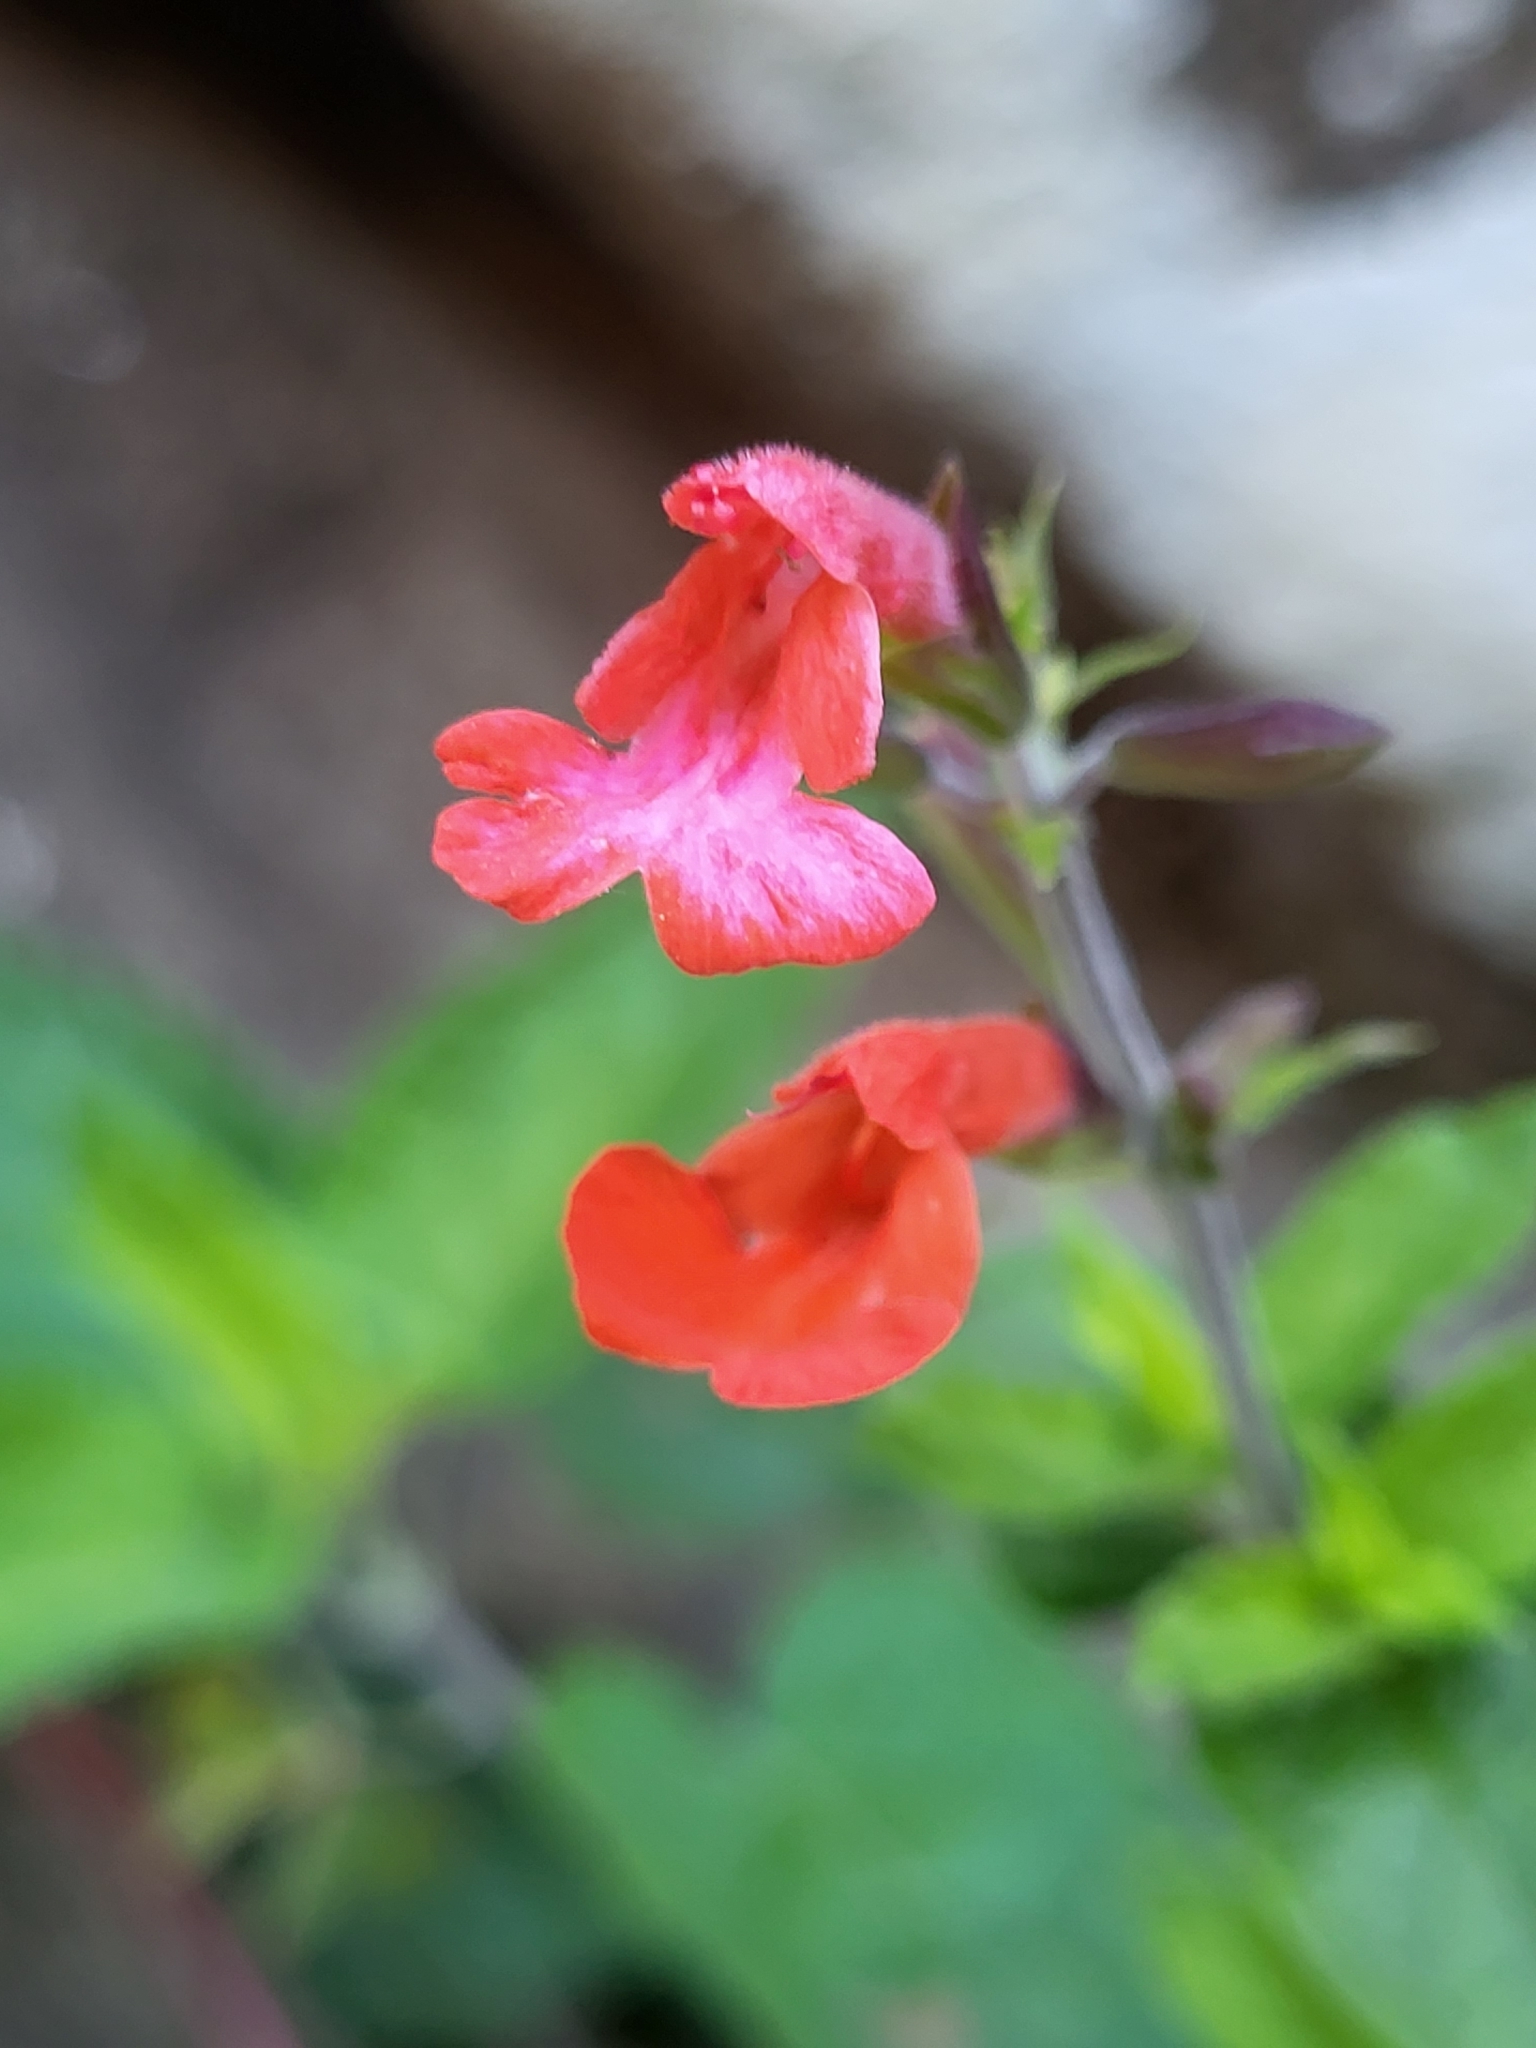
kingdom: Plantae
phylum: Tracheophyta
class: Magnoliopsida
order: Lamiales
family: Lamiaceae
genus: Salvia
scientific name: Salvia coccinea
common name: Blood sage
